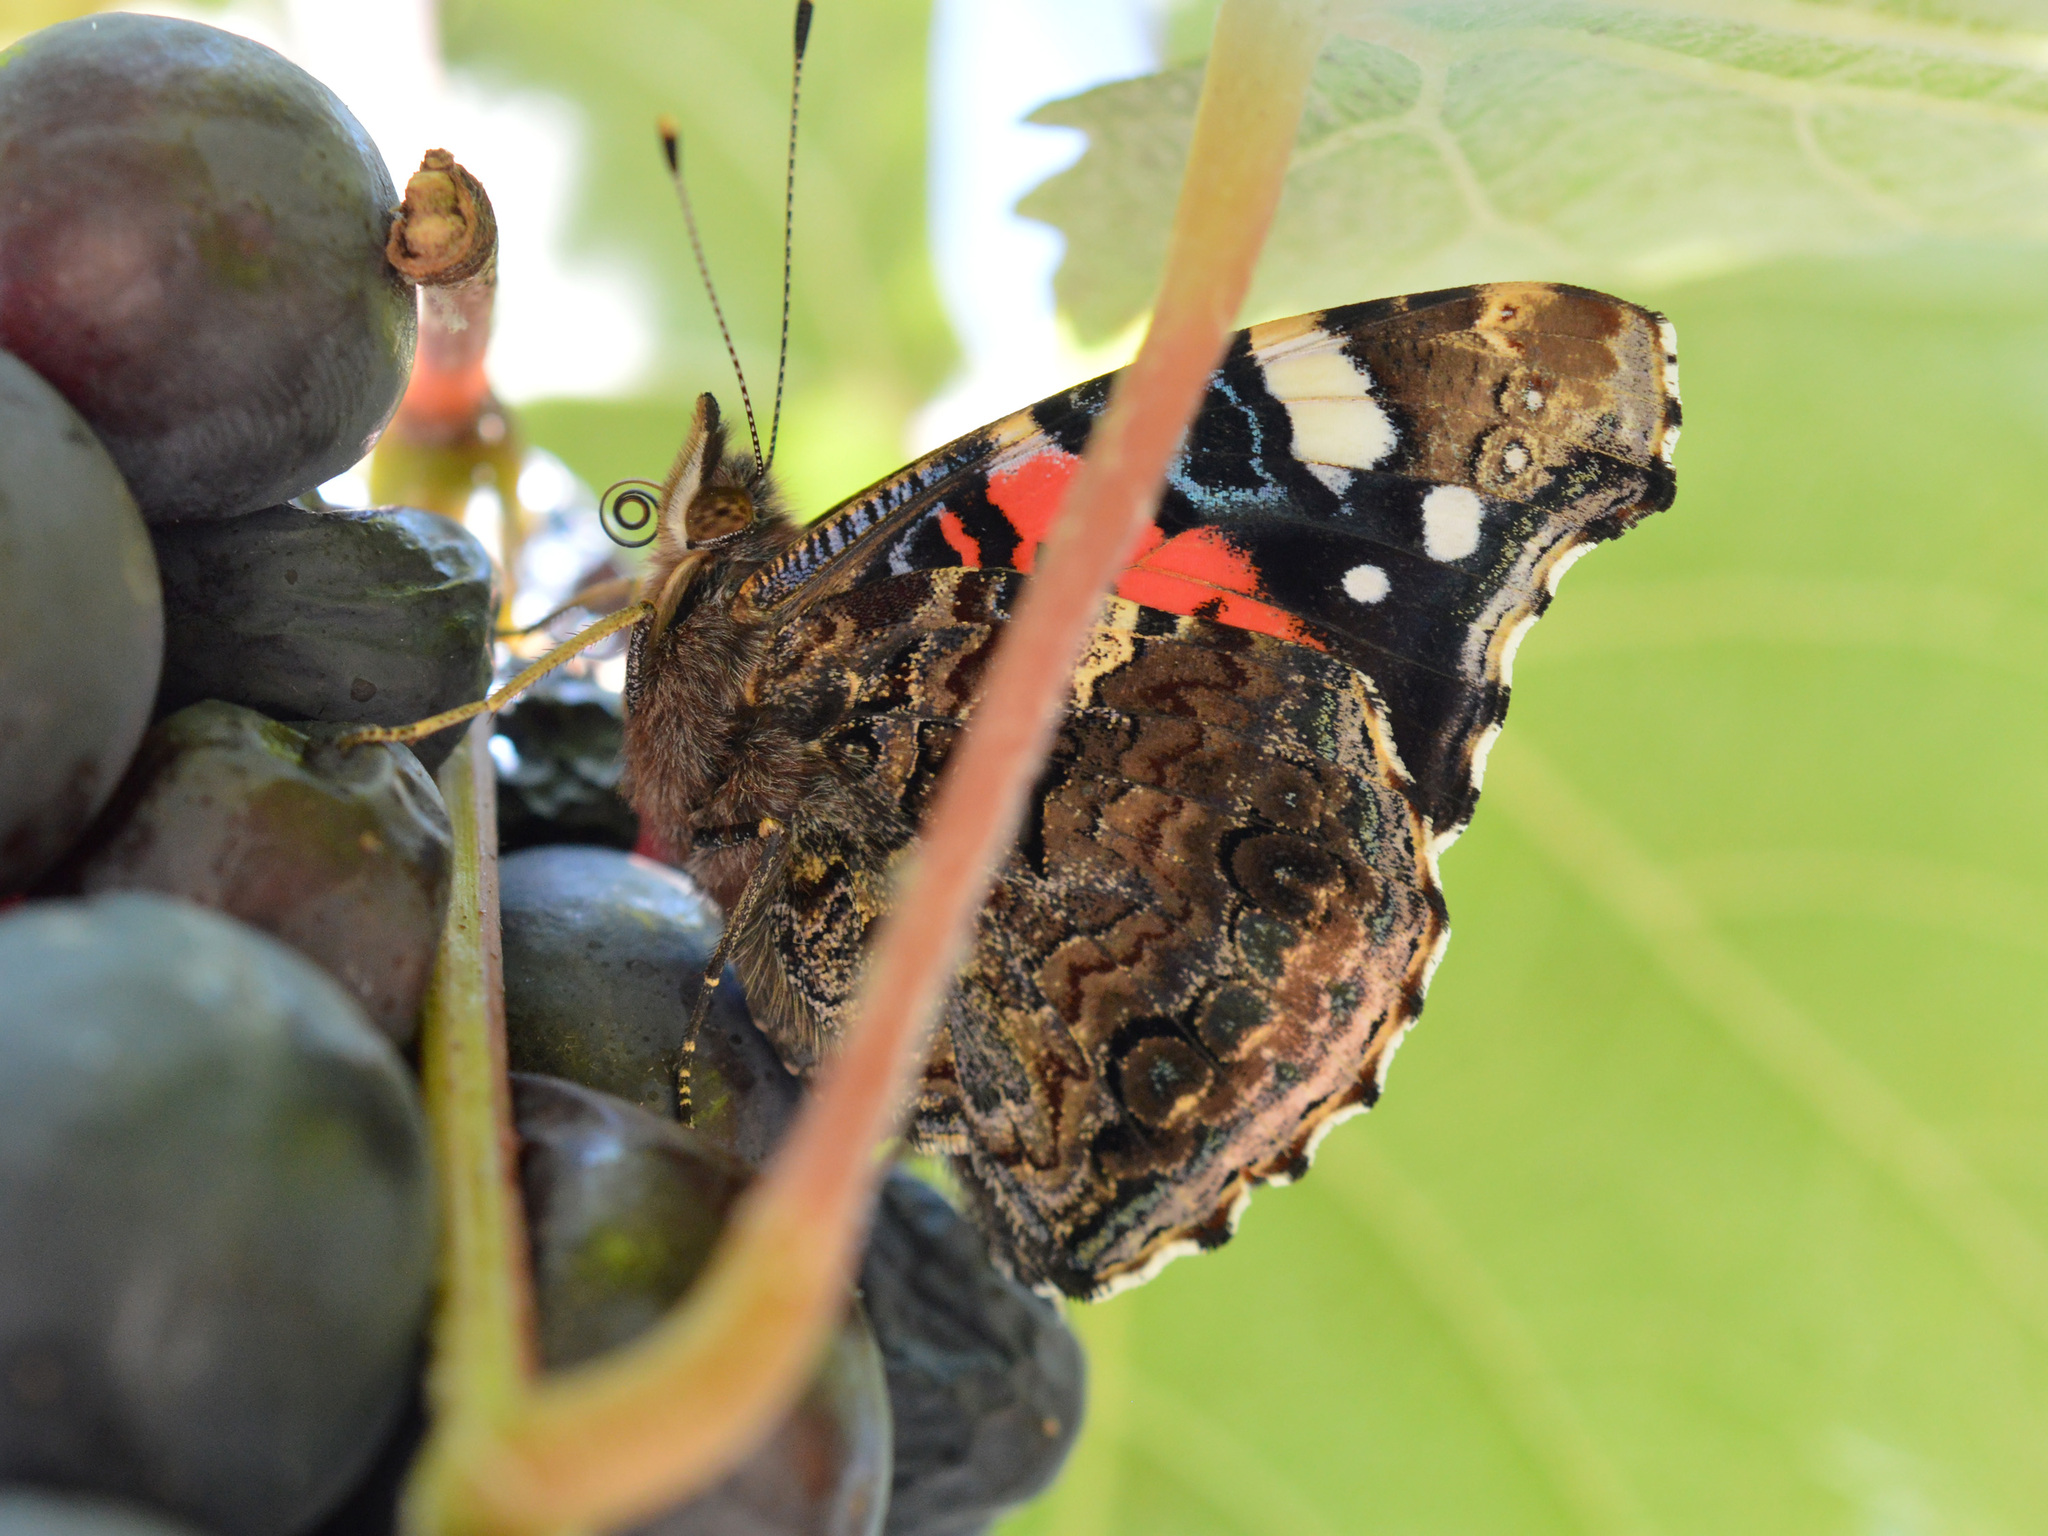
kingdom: Animalia
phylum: Arthropoda
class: Insecta
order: Lepidoptera
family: Nymphalidae
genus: Vanessa
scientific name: Vanessa atalanta
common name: Red admiral
